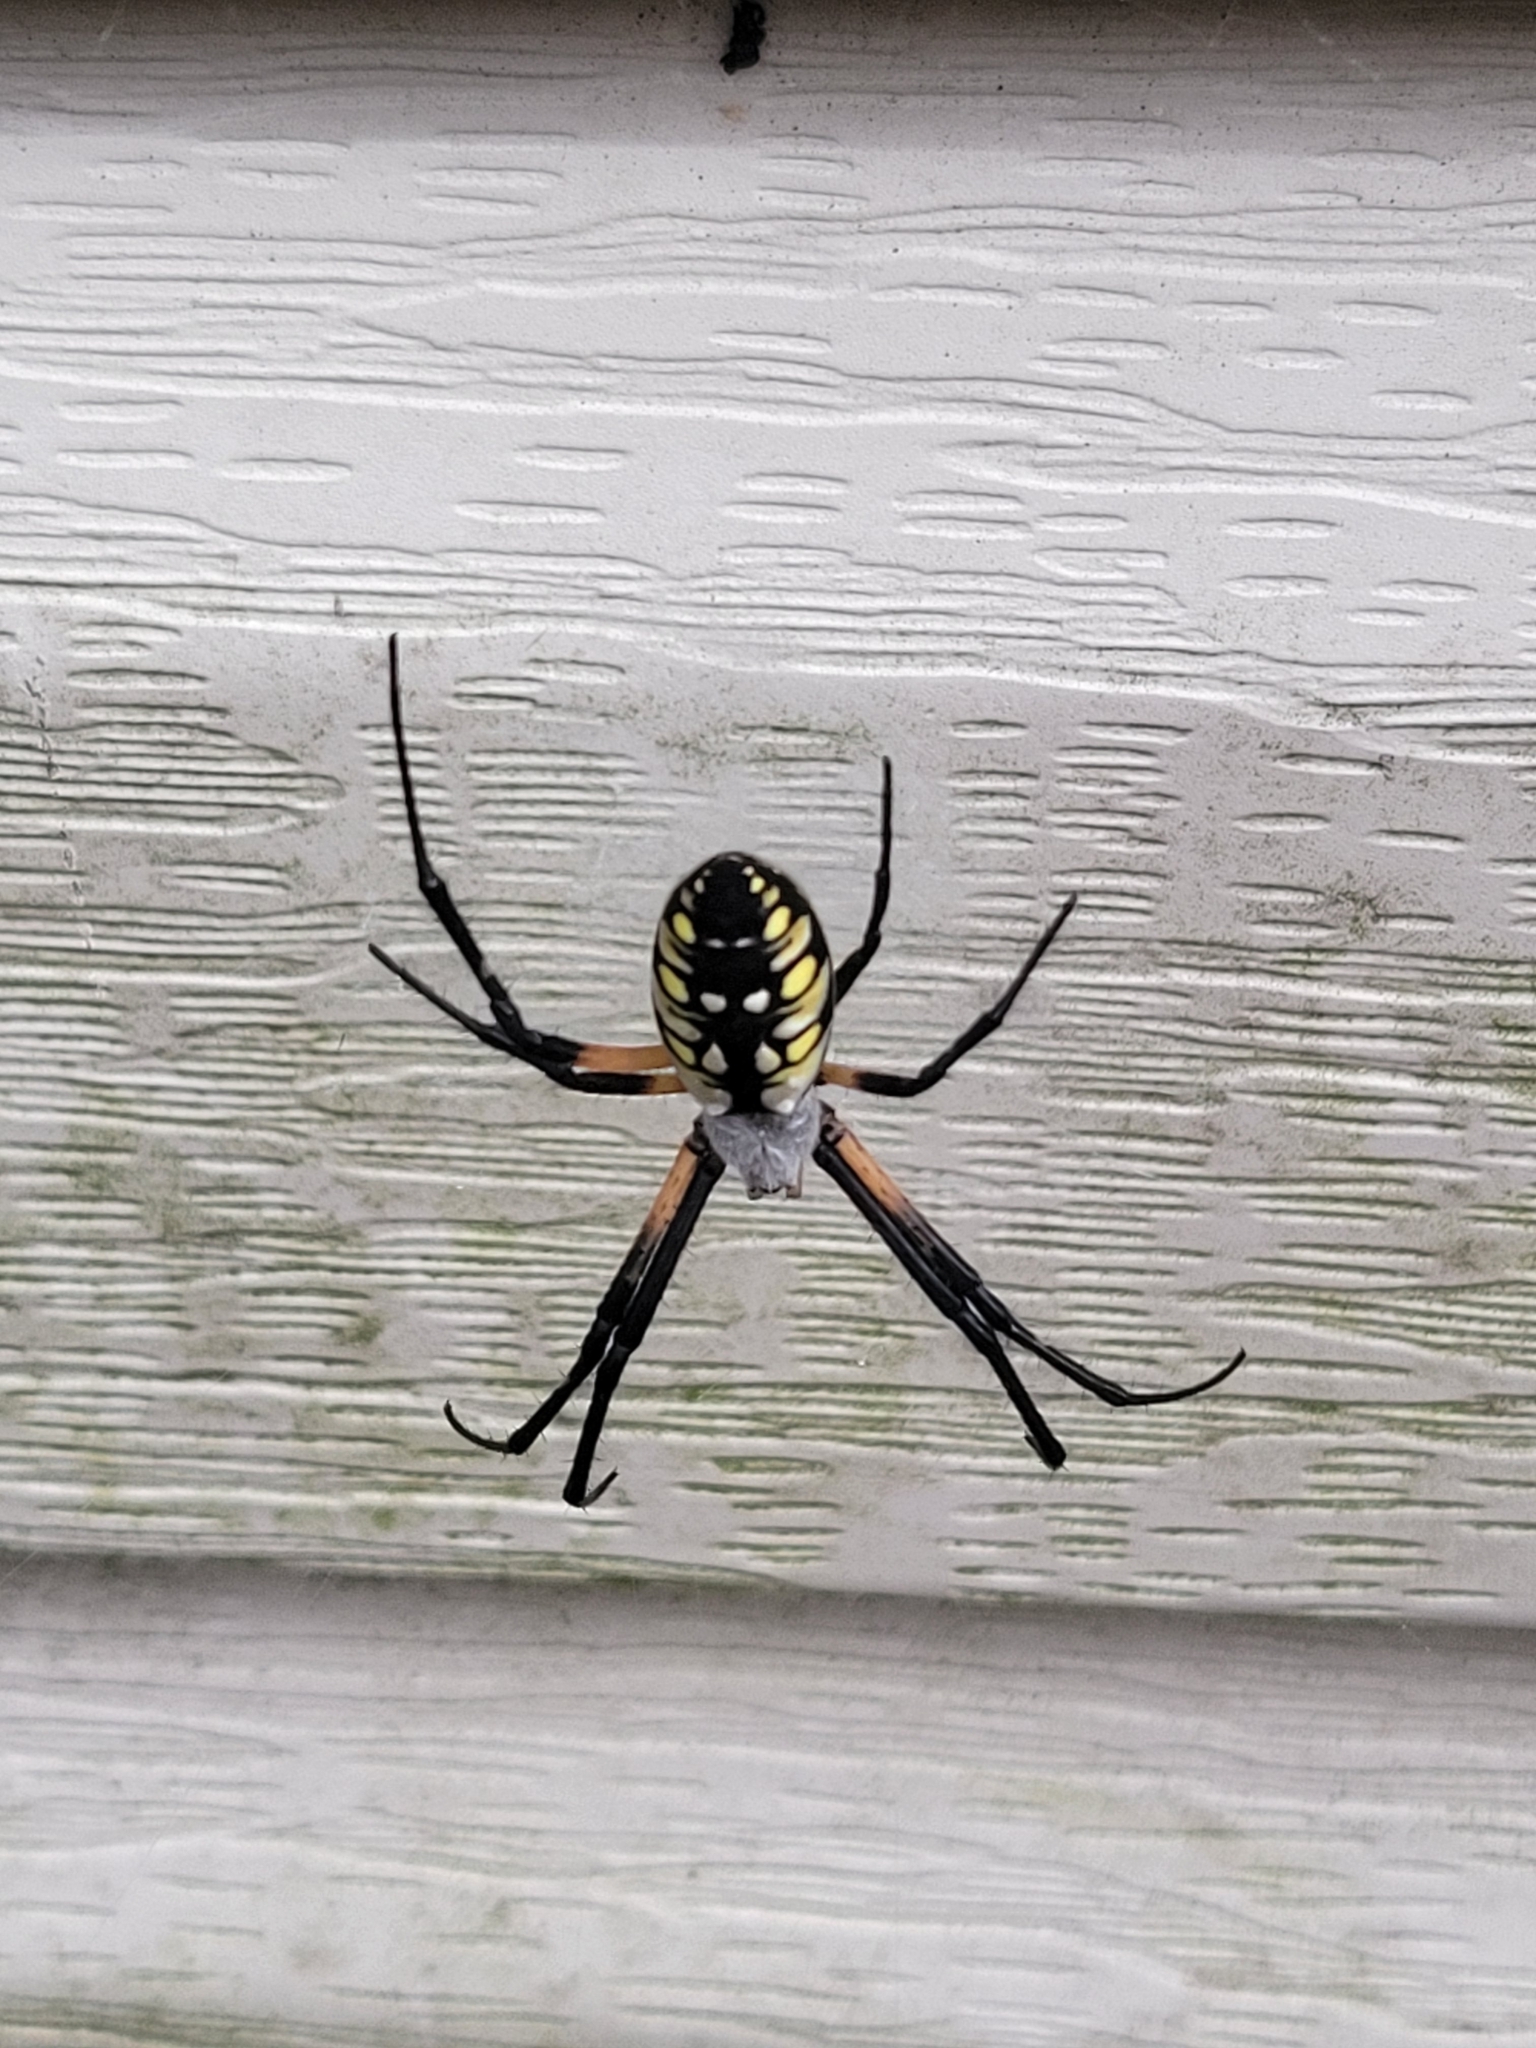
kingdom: Animalia
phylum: Arthropoda
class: Arachnida
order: Araneae
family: Araneidae
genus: Argiope
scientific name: Argiope aurantia
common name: Orb weavers
